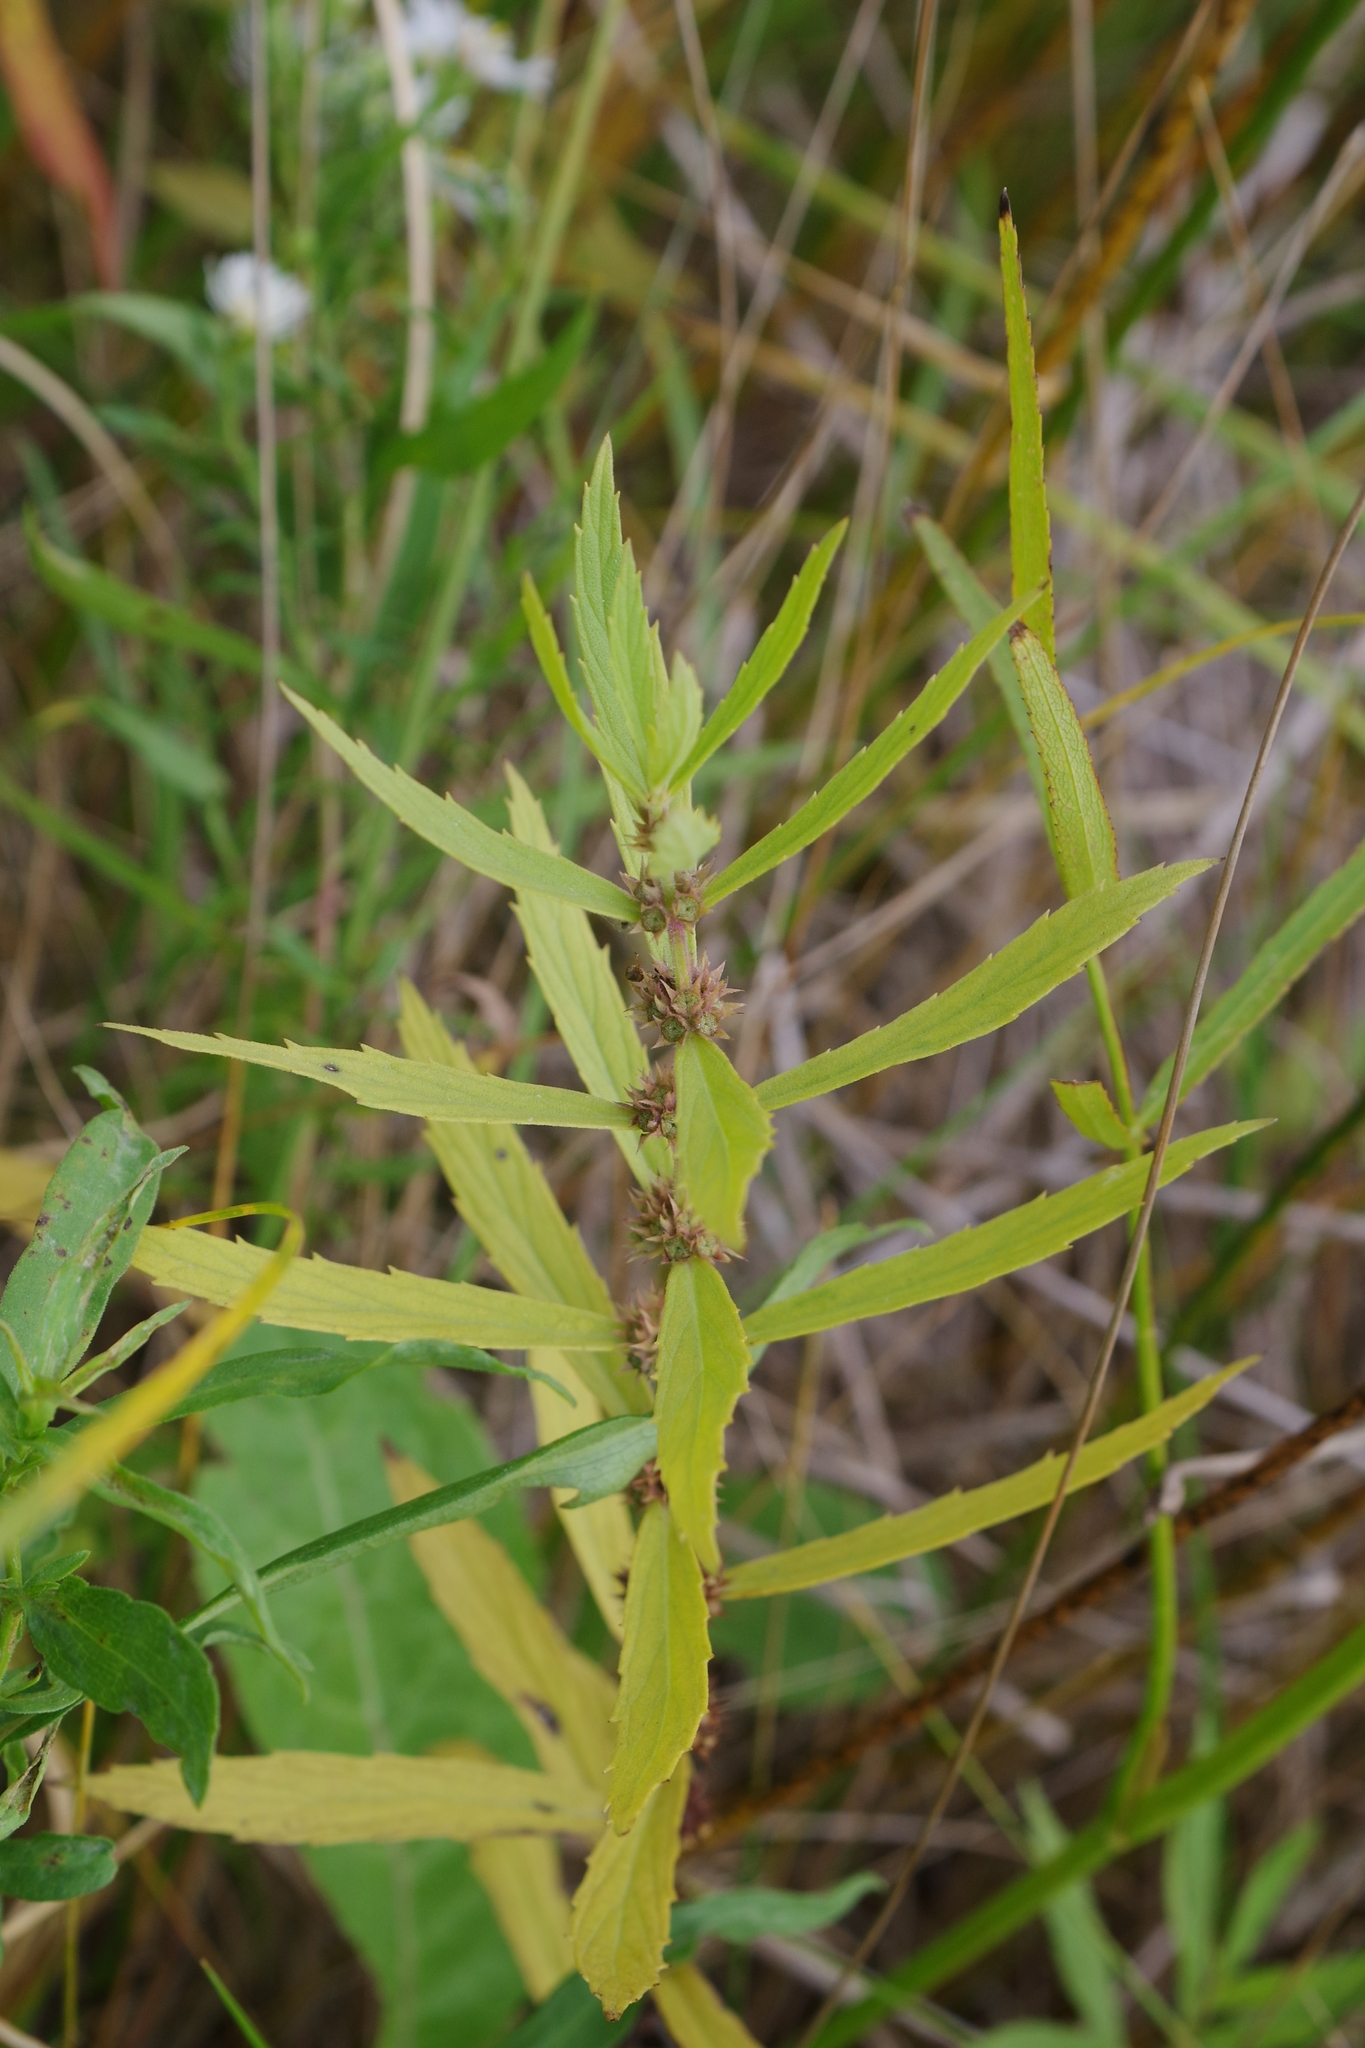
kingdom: Plantae
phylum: Tracheophyta
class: Magnoliopsida
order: Lamiales
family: Lamiaceae
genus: Lycopus
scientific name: Lycopus uniflorus
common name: Northern bugleweed
